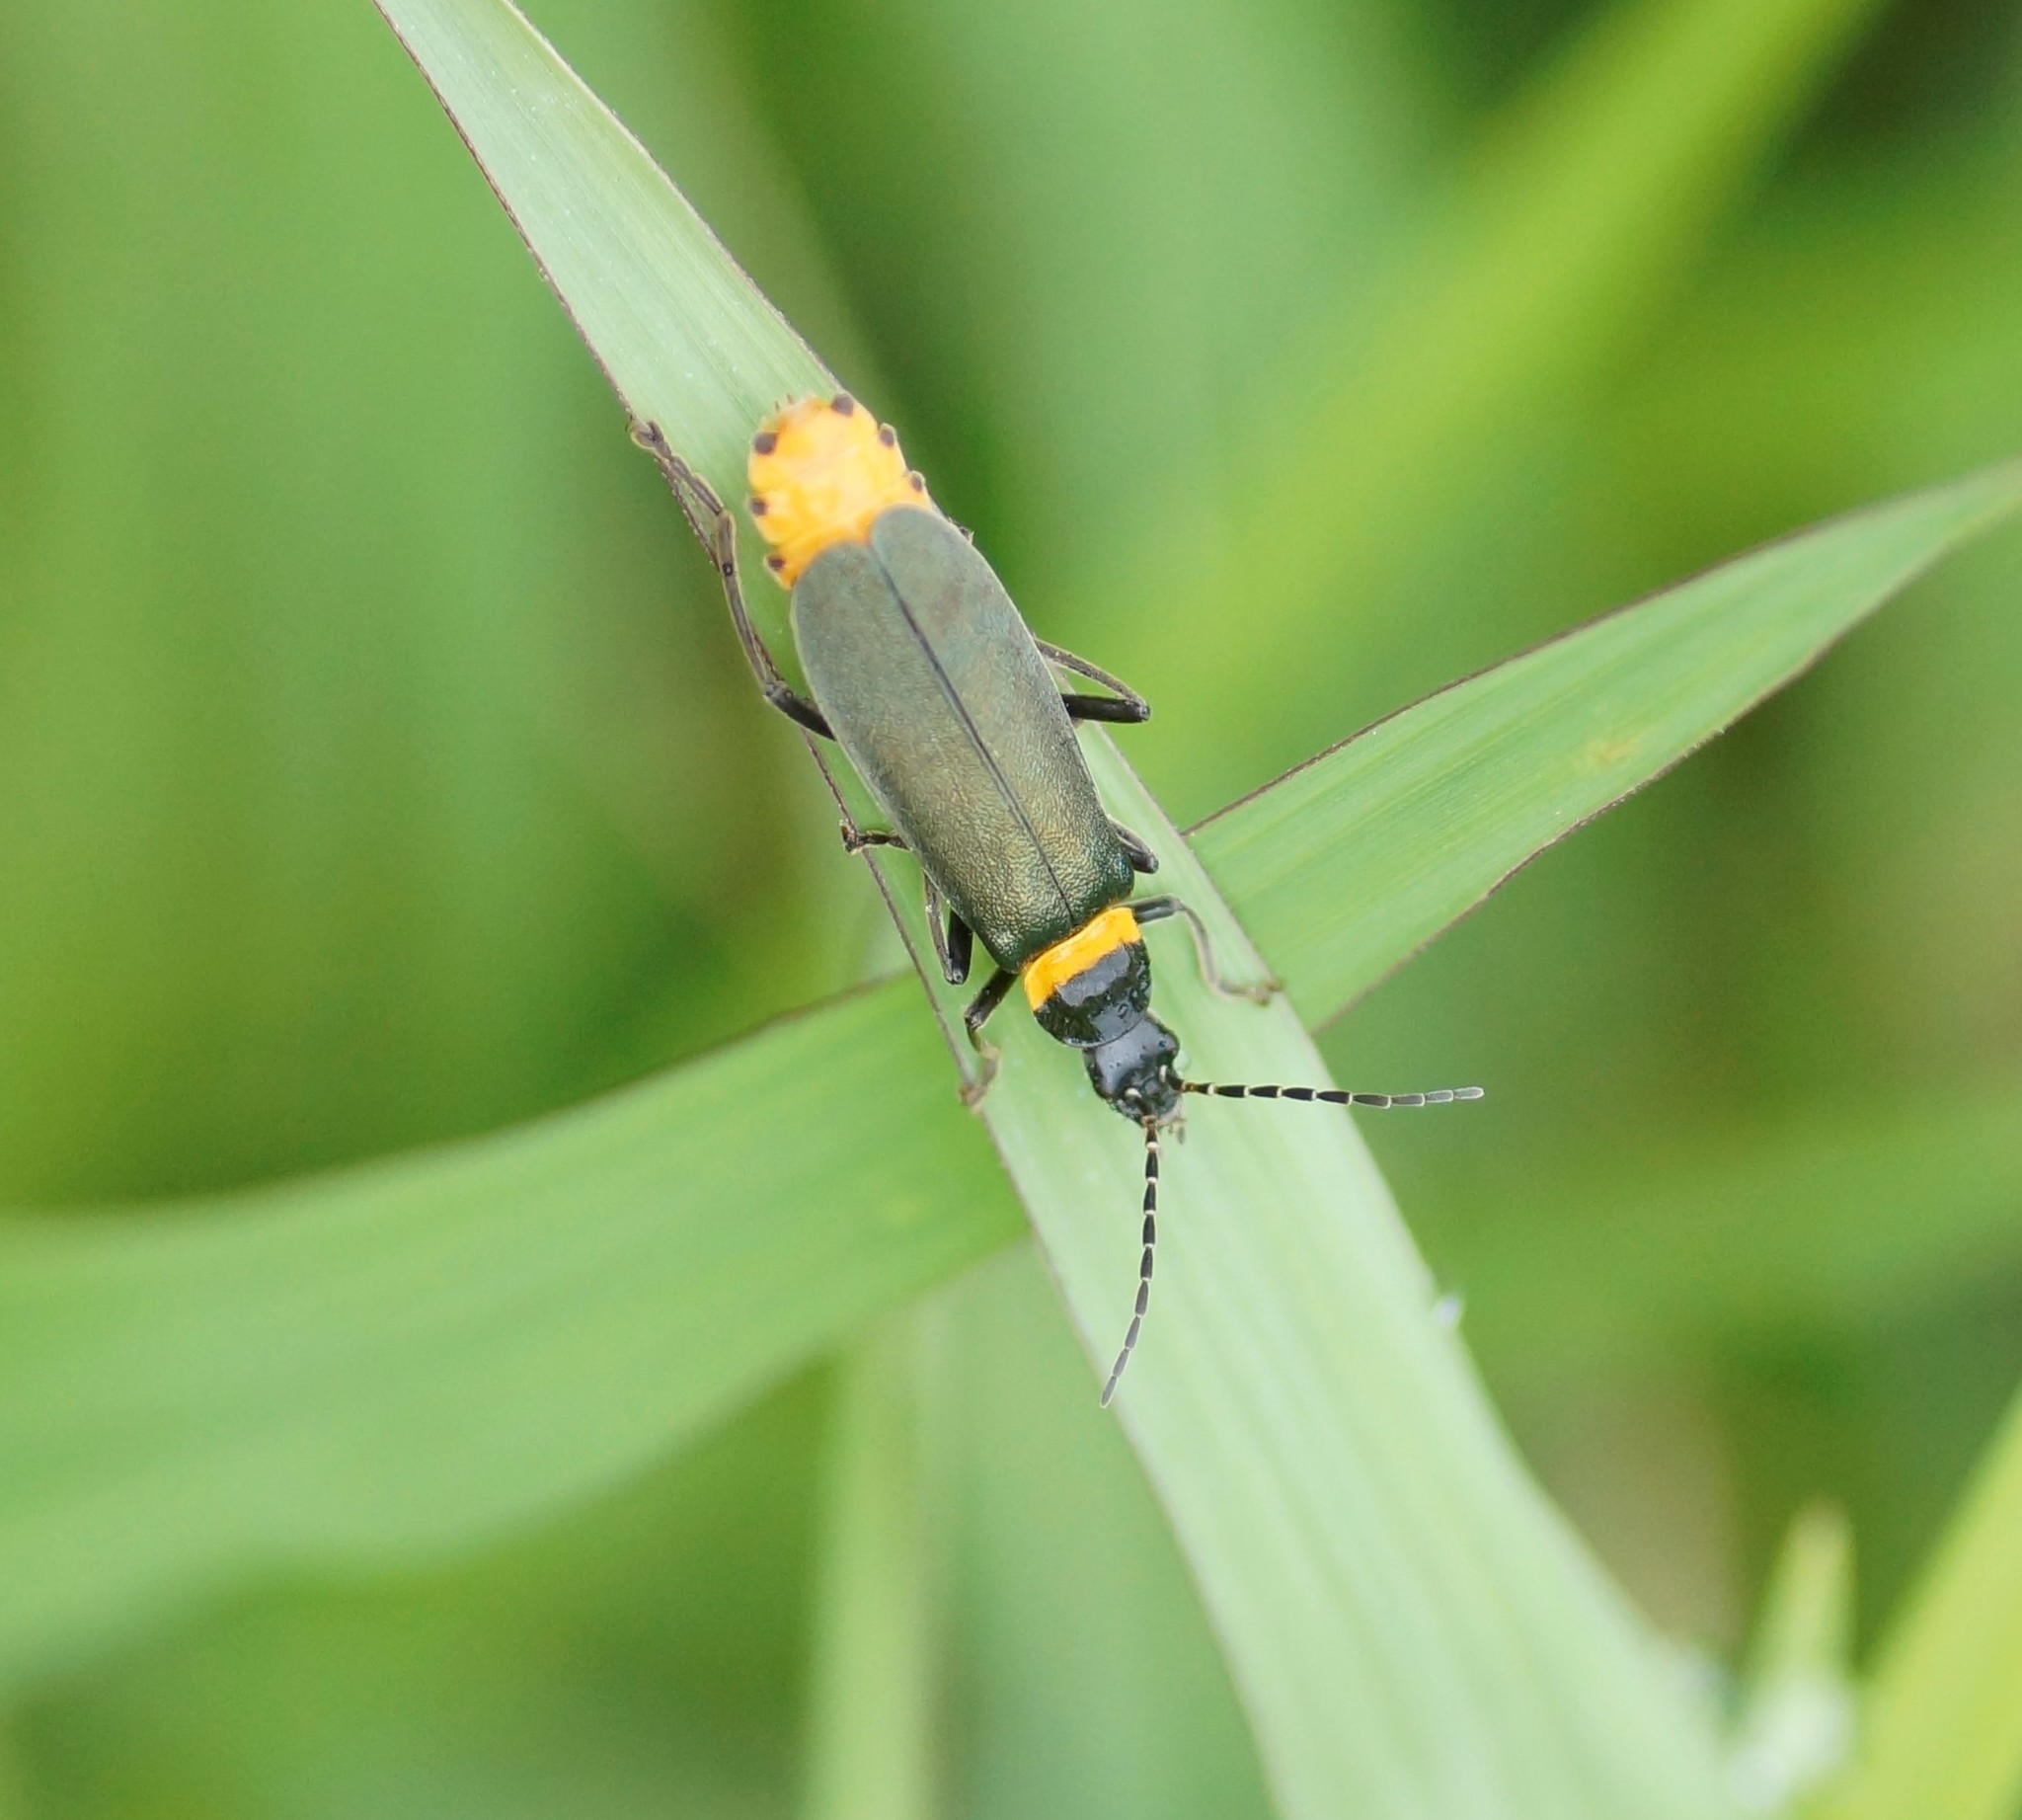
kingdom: Animalia
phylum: Arthropoda
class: Insecta
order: Coleoptera
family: Cantharidae
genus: Chauliognathus
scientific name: Chauliognathus
